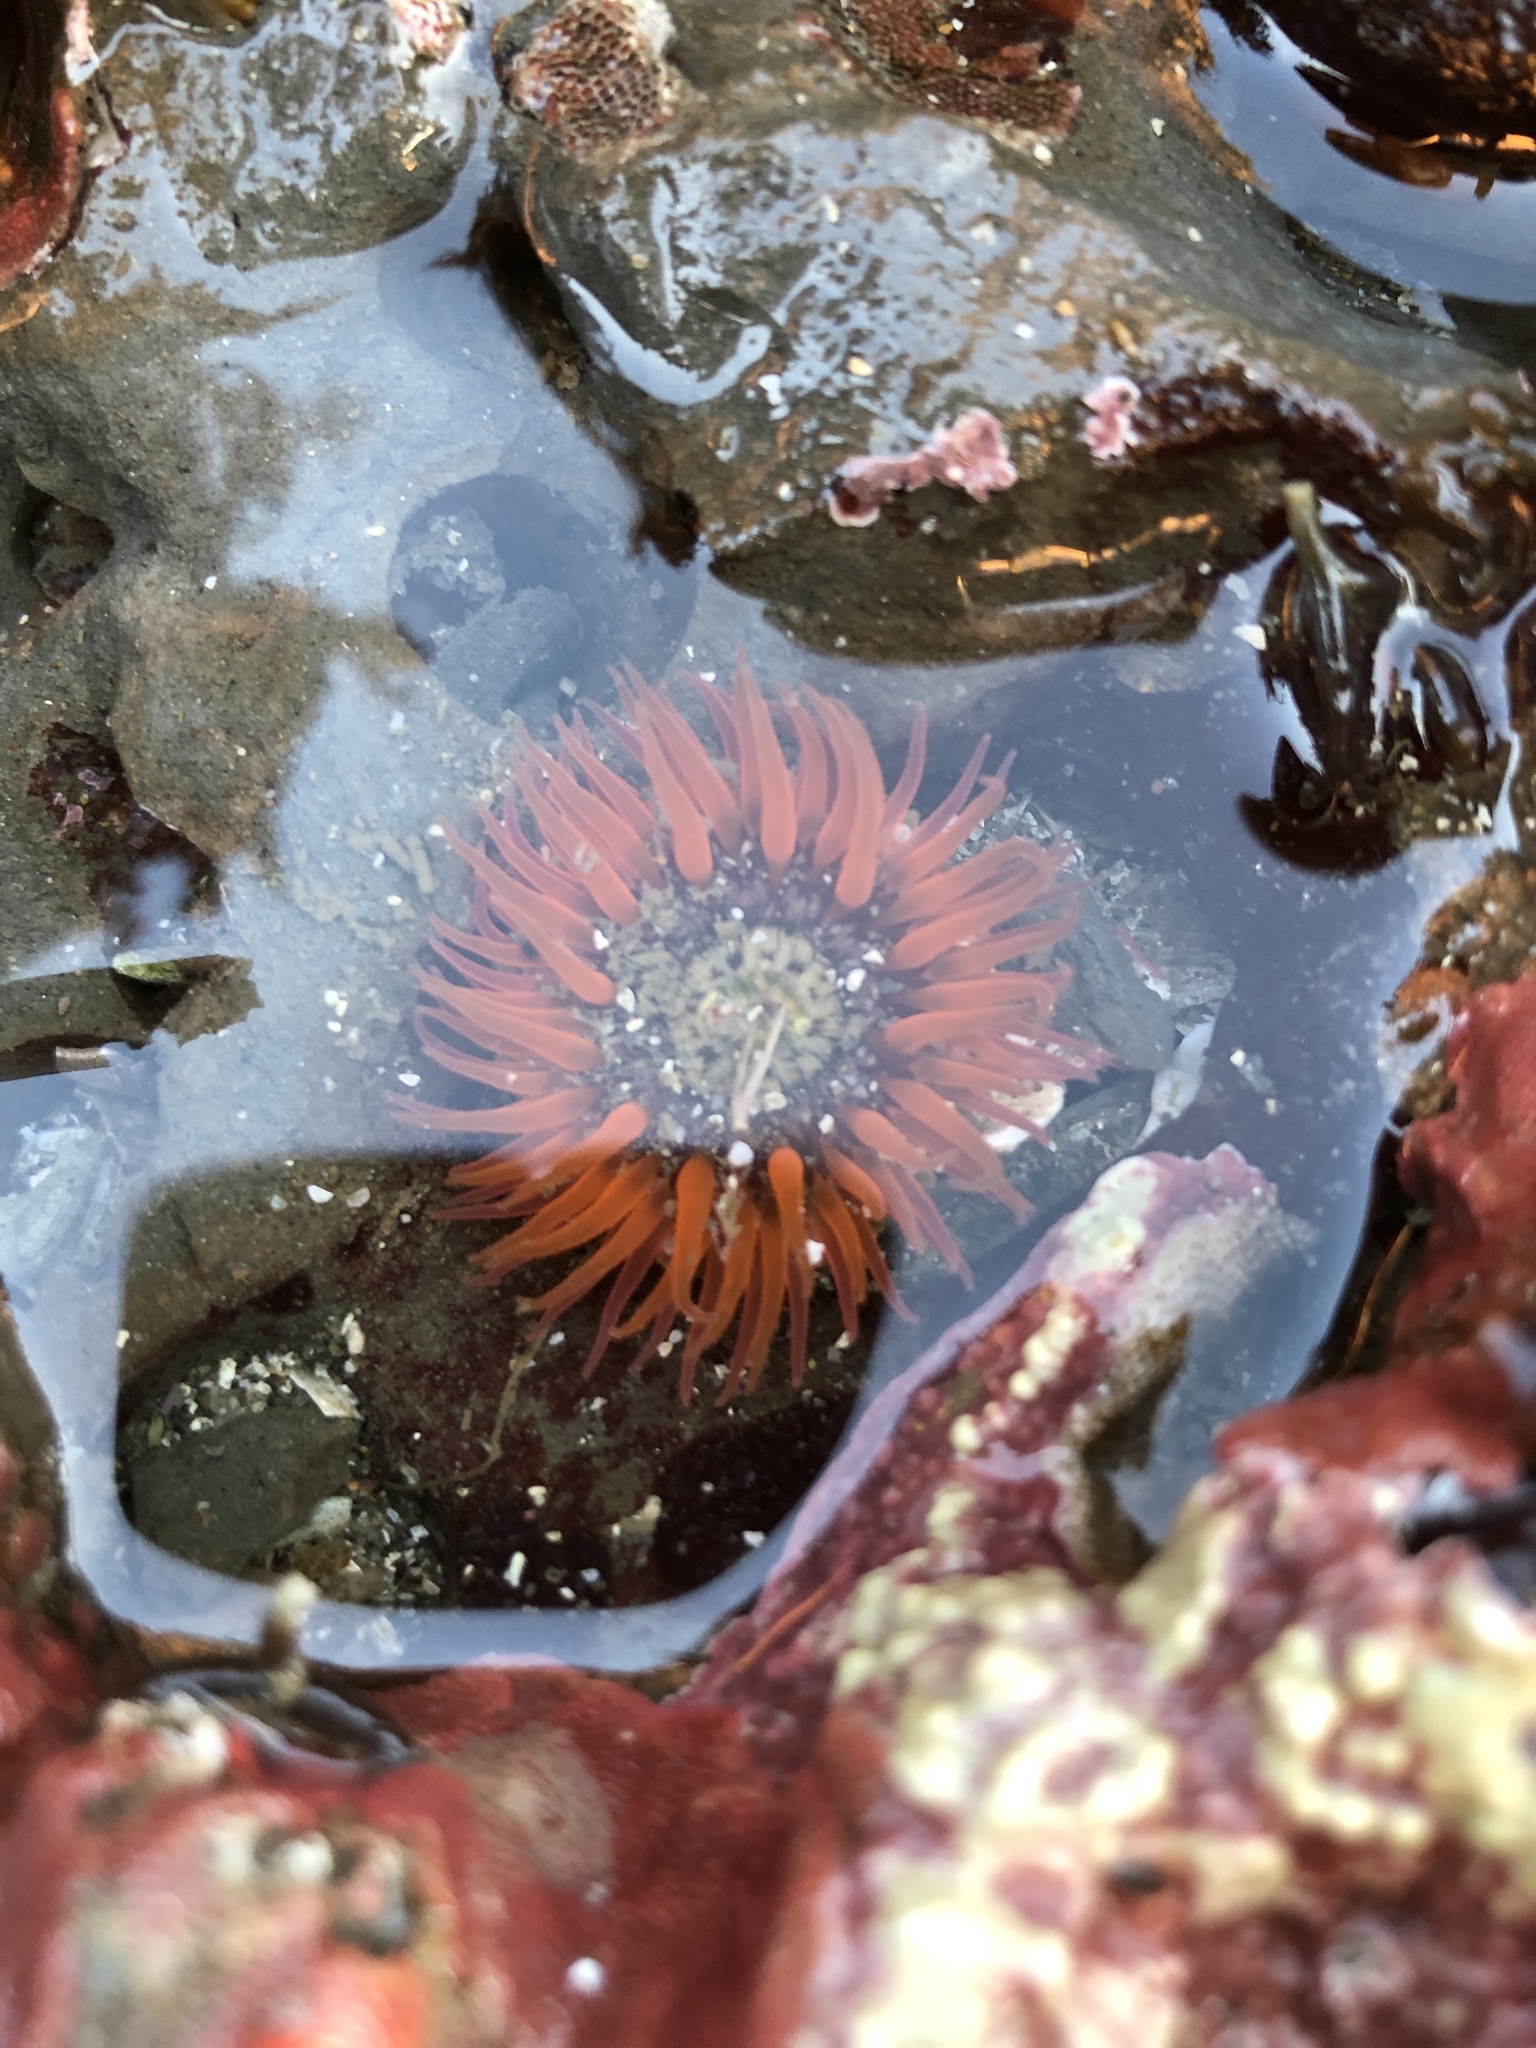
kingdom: Animalia
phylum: Cnidaria
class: Anthozoa
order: Actiniaria
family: Actiniidae
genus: Anthopleura
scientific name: Anthopleura artemisia
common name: Buried sea anemone
